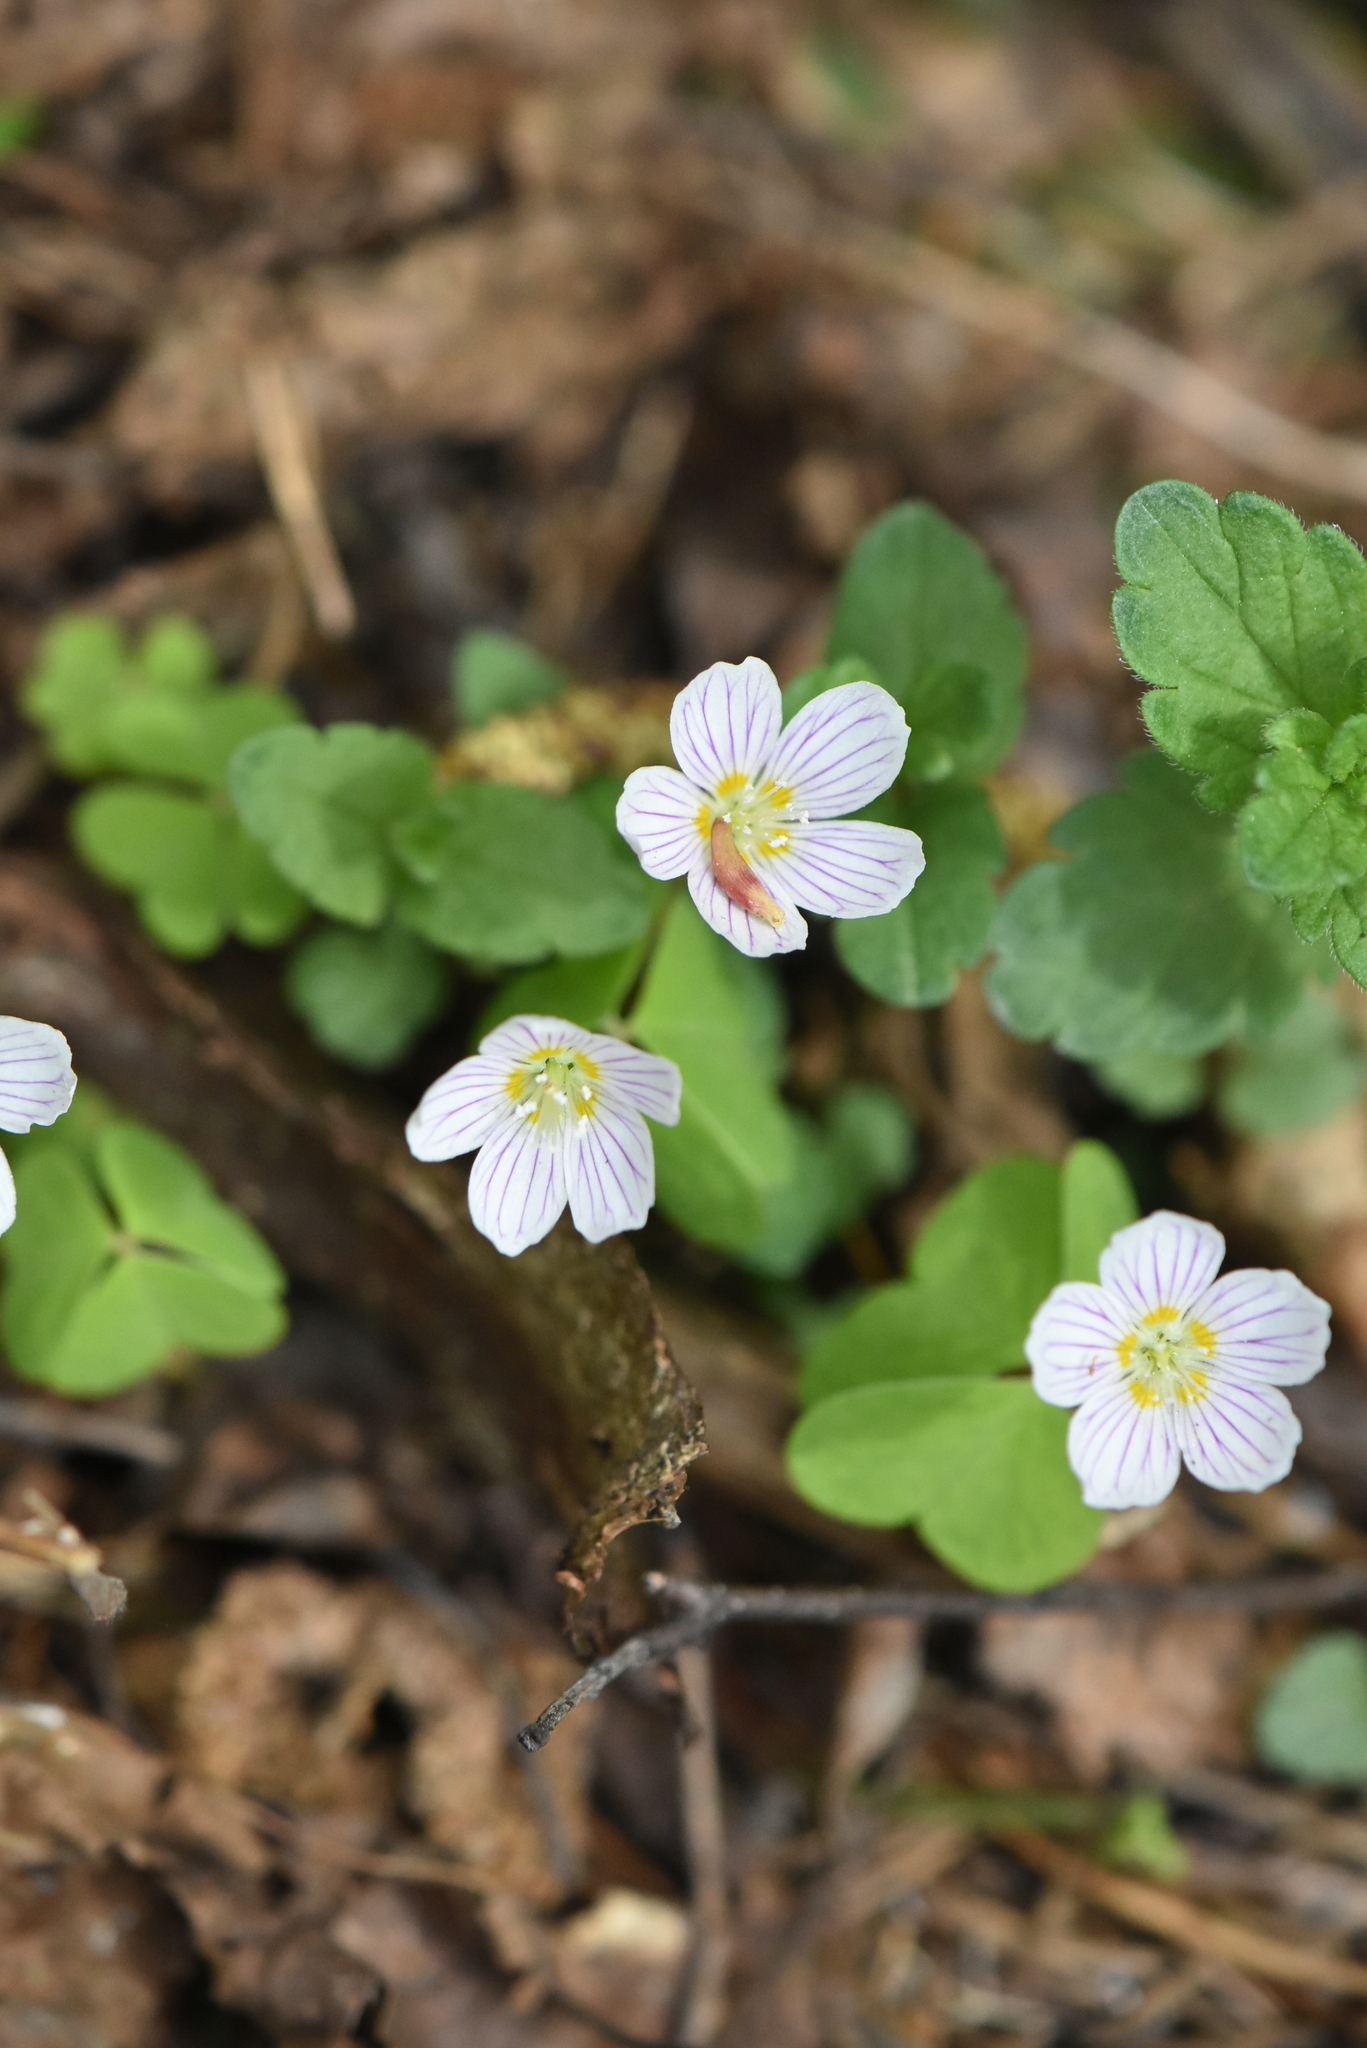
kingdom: Plantae
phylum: Tracheophyta
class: Magnoliopsida
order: Oxalidales
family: Oxalidaceae
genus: Oxalis
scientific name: Oxalis acetosella
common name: Wood-sorrel
